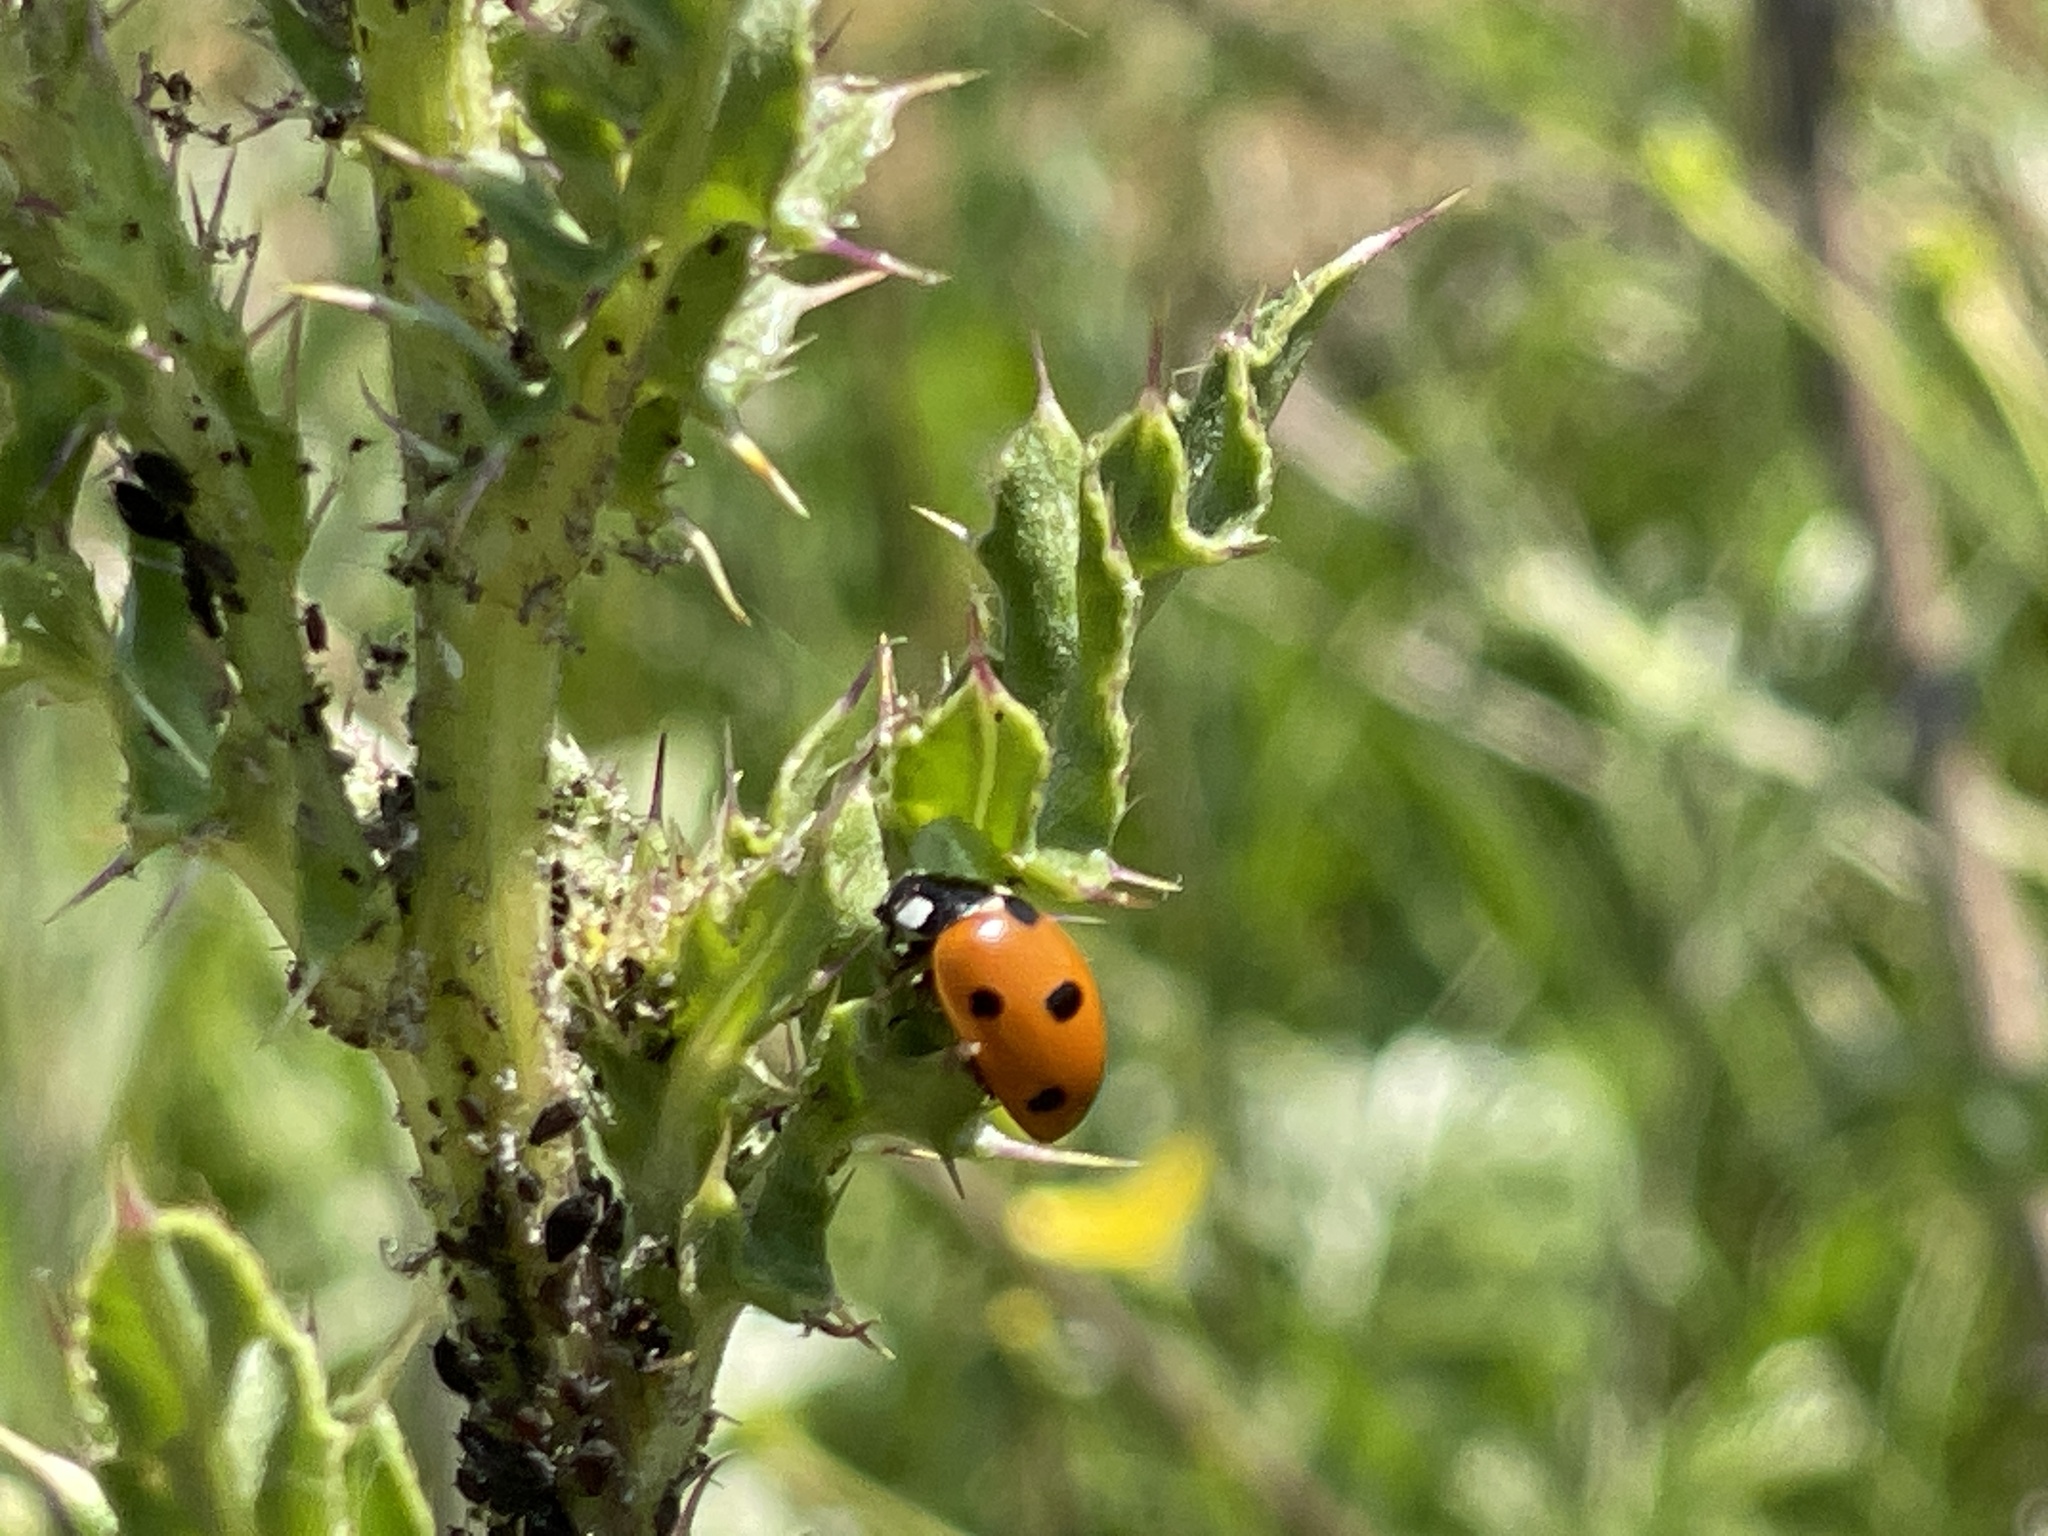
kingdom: Animalia
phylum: Arthropoda
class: Insecta
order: Coleoptera
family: Coccinellidae
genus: Coccinella
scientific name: Coccinella septempunctata
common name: Sevenspotted lady beetle
